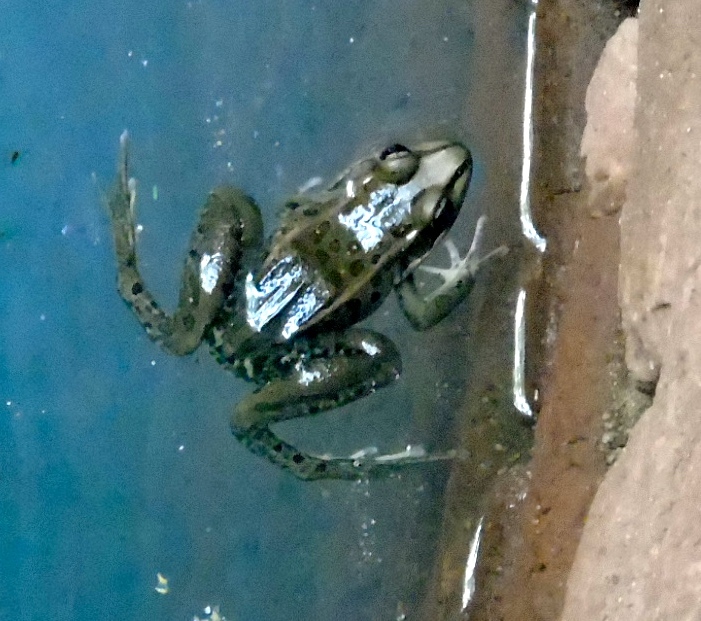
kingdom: Animalia
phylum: Chordata
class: Amphibia
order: Anura
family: Ranidae
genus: Lithobates
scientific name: Lithobates magnaocularis
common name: Northwest mexico leopard frog
